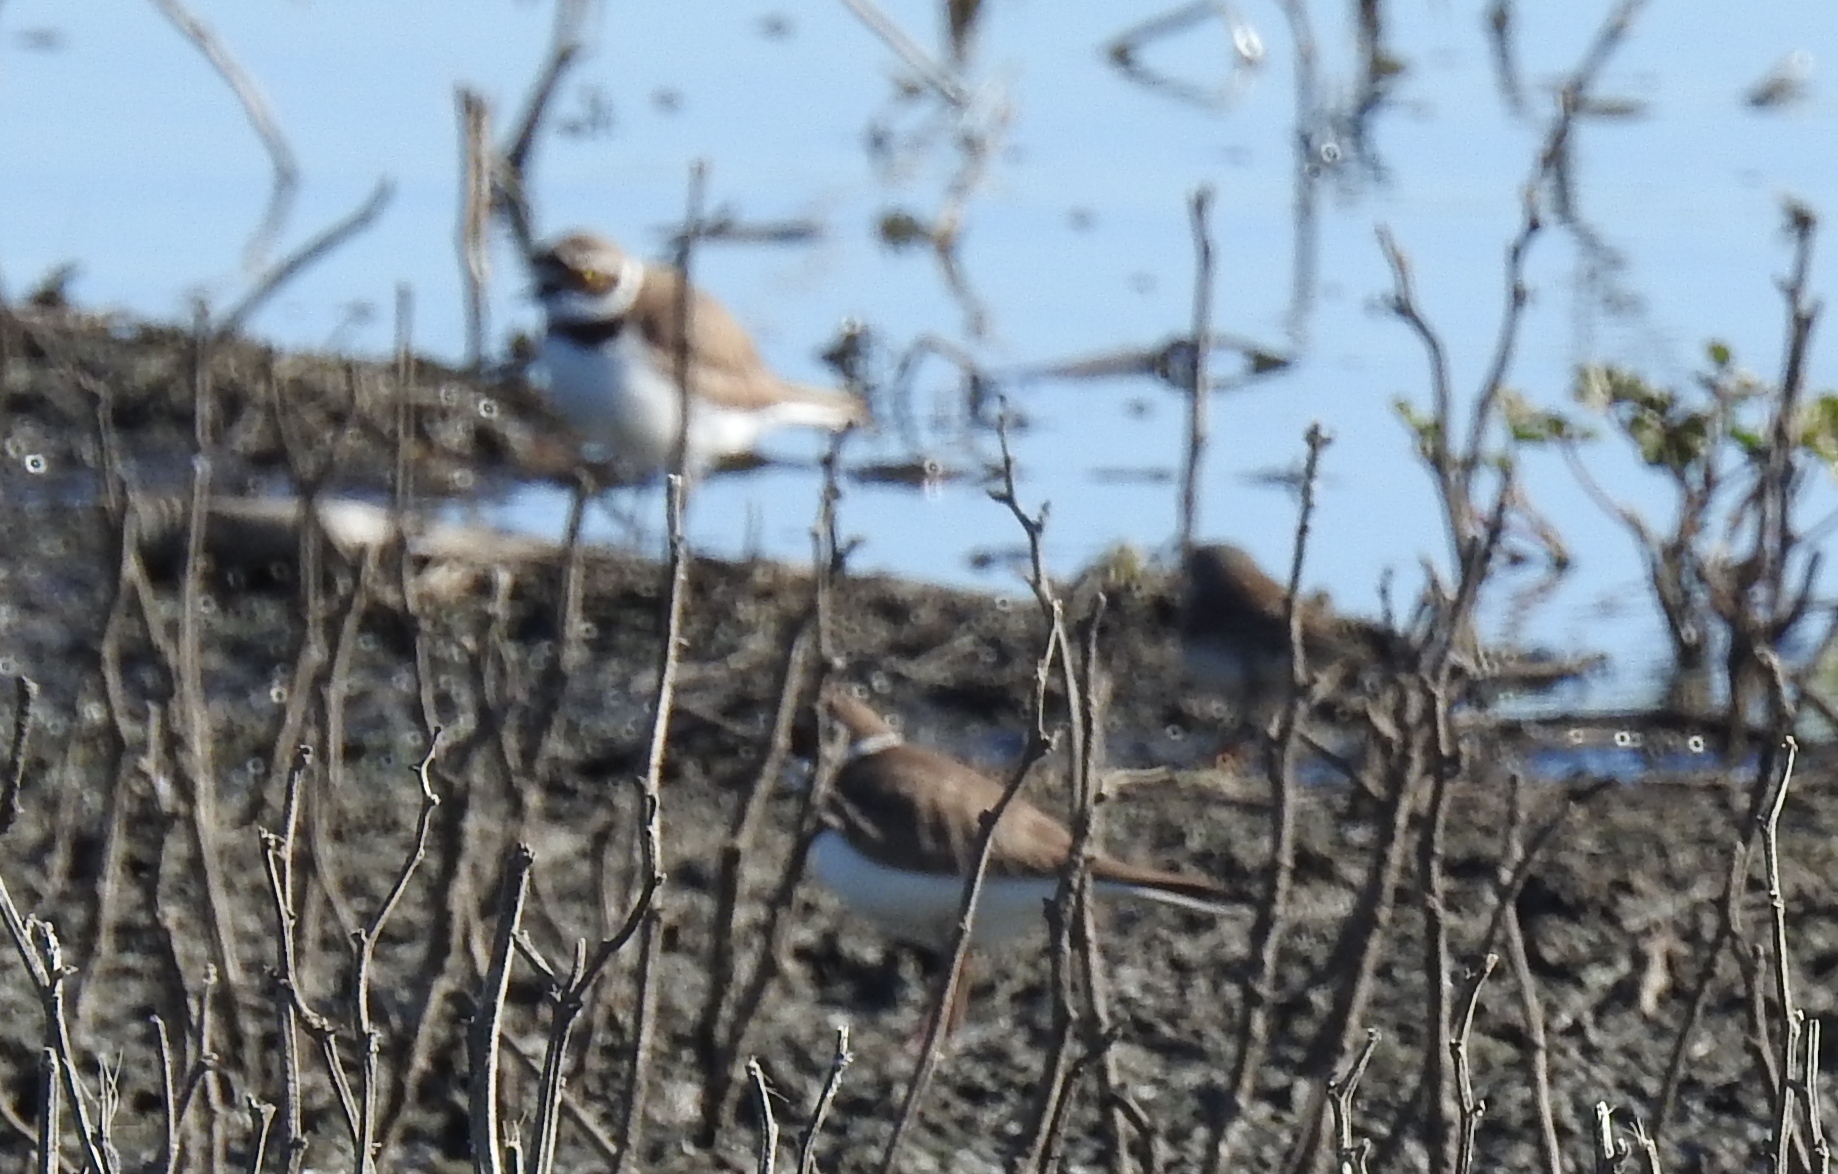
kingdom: Animalia
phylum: Chordata
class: Aves
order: Charadriiformes
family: Charadriidae
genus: Charadrius
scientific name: Charadrius dubius
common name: Little ringed plover
